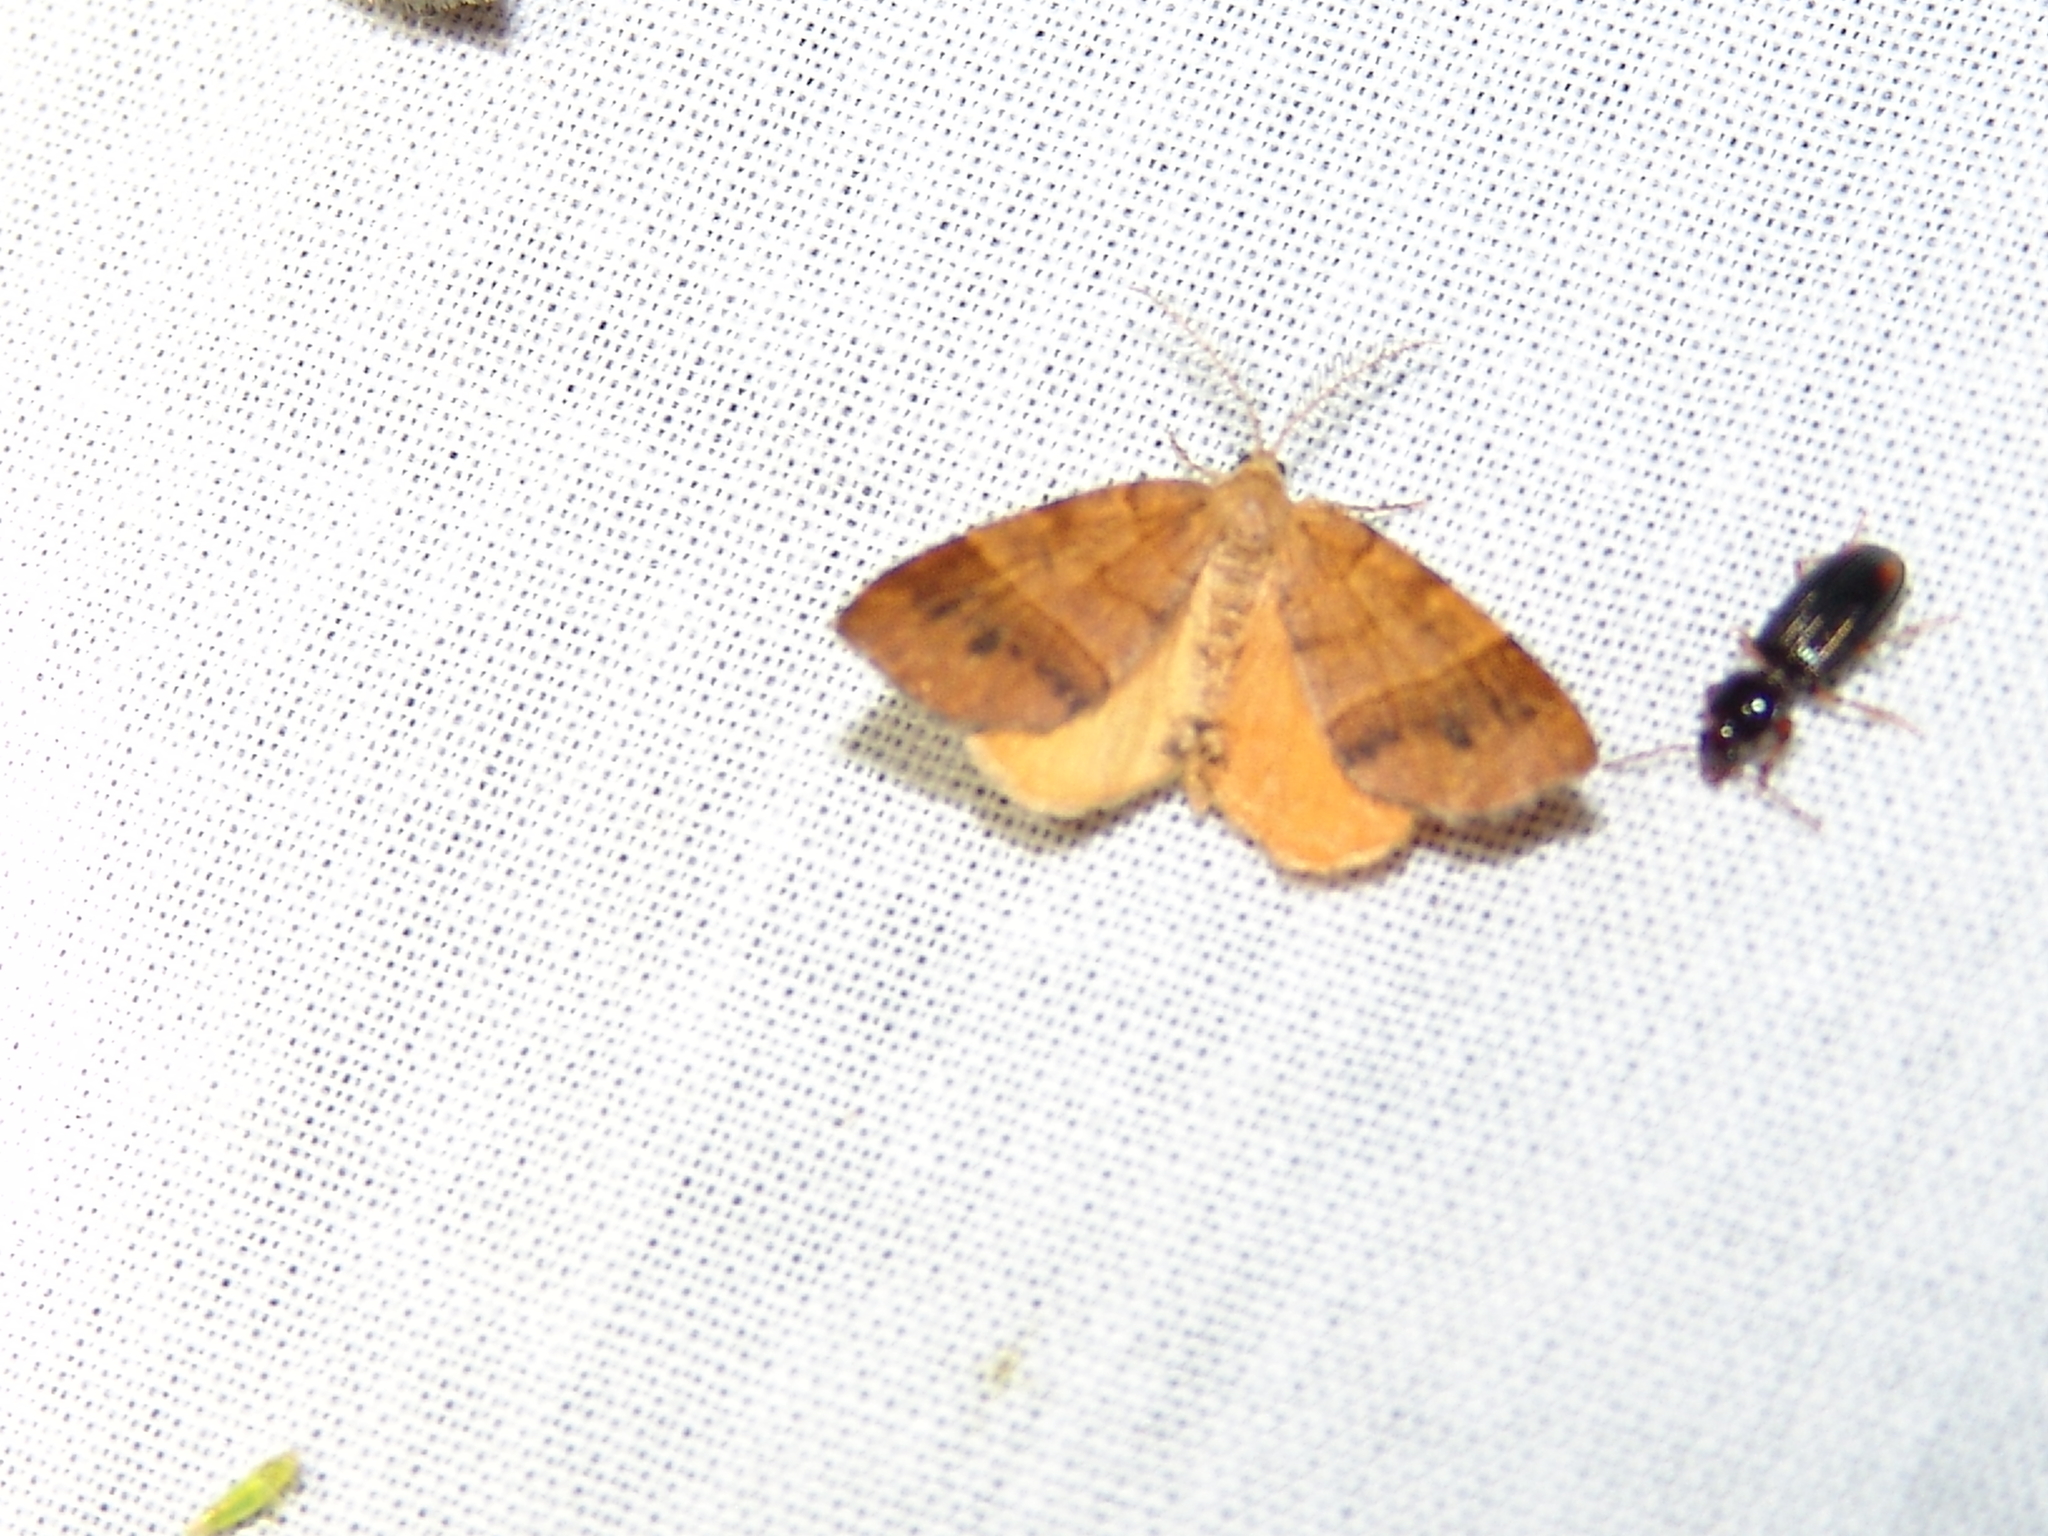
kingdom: Animalia
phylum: Arthropoda
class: Insecta
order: Lepidoptera
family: Geometridae
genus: Mellilla
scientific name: Mellilla xanthometata
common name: Orange wing moth
